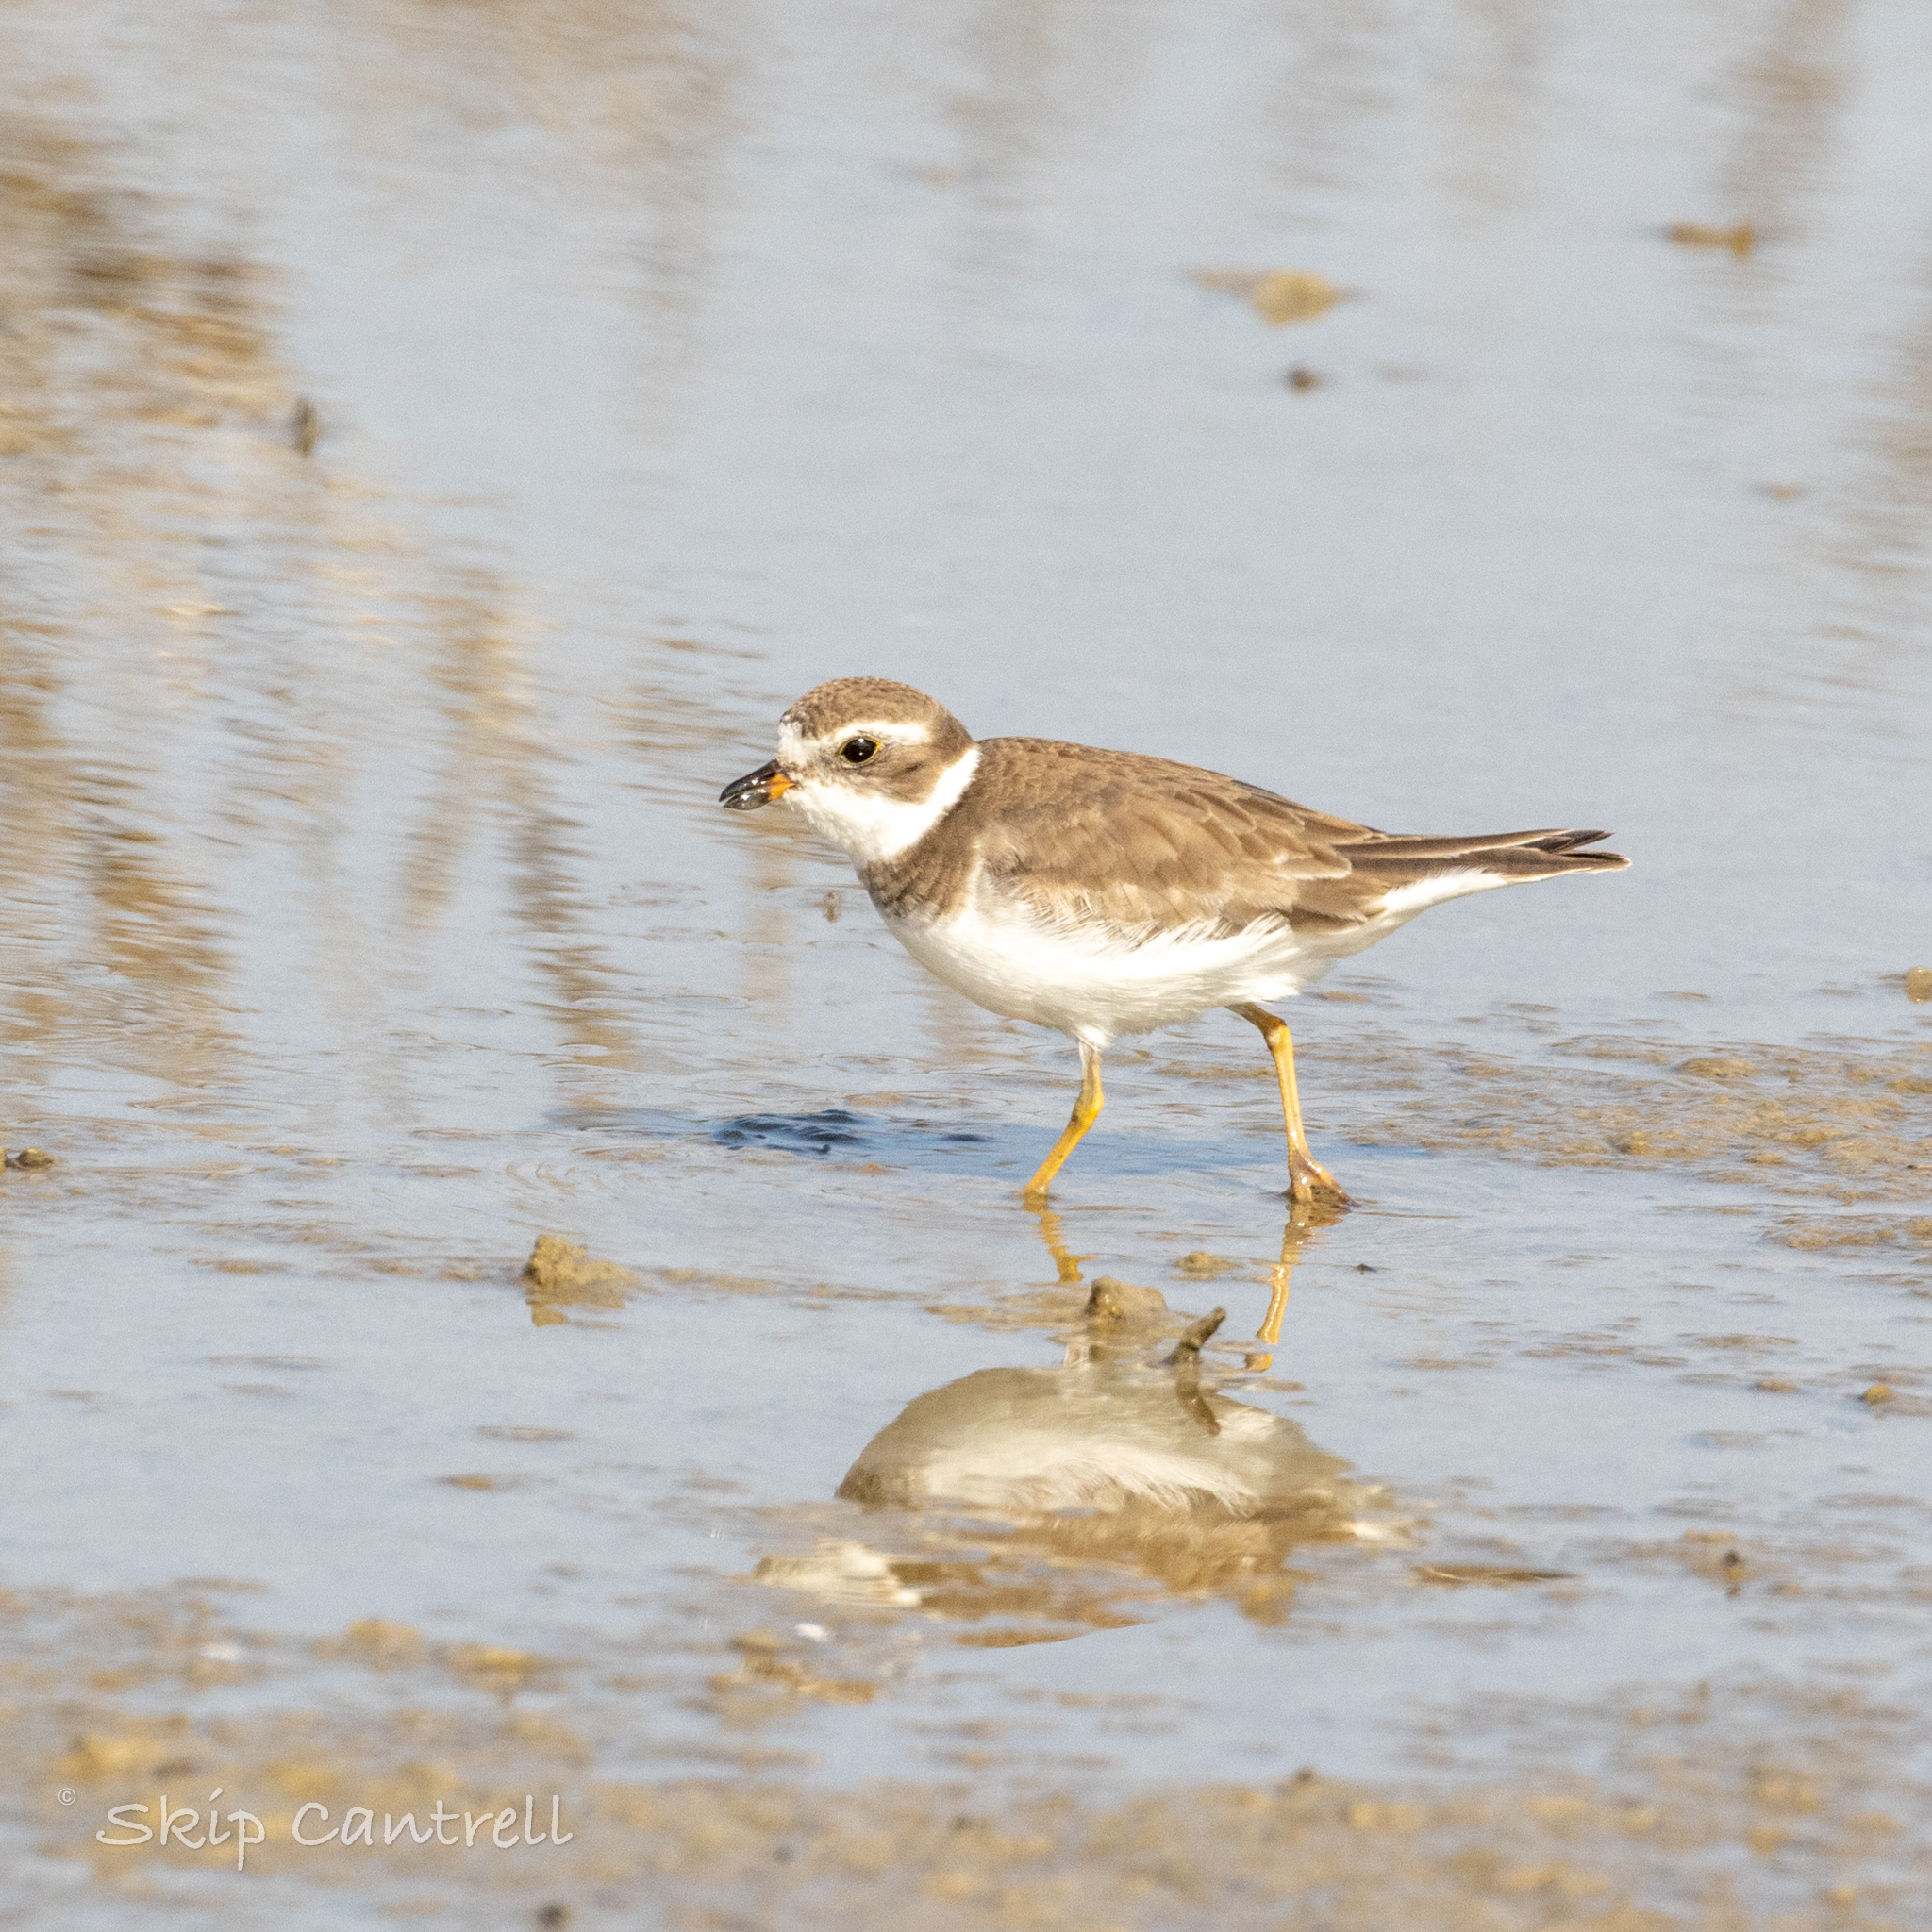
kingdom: Animalia
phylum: Chordata
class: Aves
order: Charadriiformes
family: Charadriidae
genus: Charadrius
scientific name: Charadrius semipalmatus
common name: Semipalmated plover
